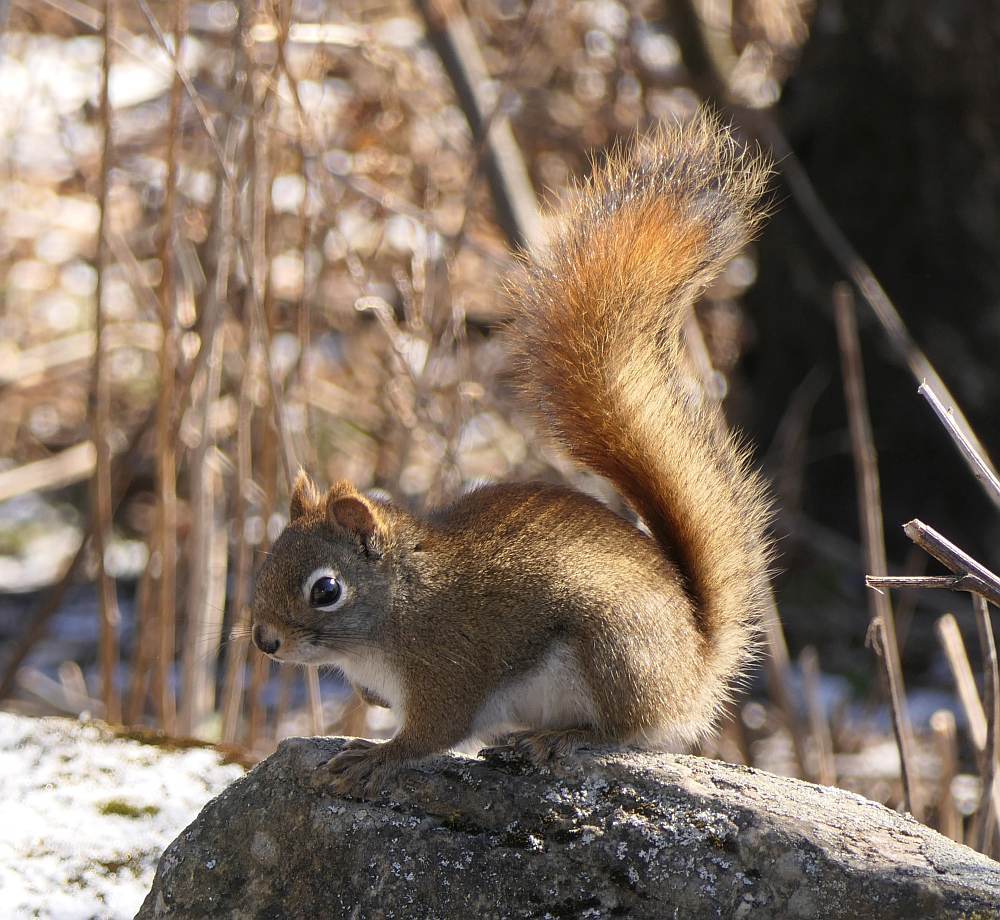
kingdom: Animalia
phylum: Chordata
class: Mammalia
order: Rodentia
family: Sciuridae
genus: Tamiasciurus
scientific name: Tamiasciurus hudsonicus
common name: Red squirrel
